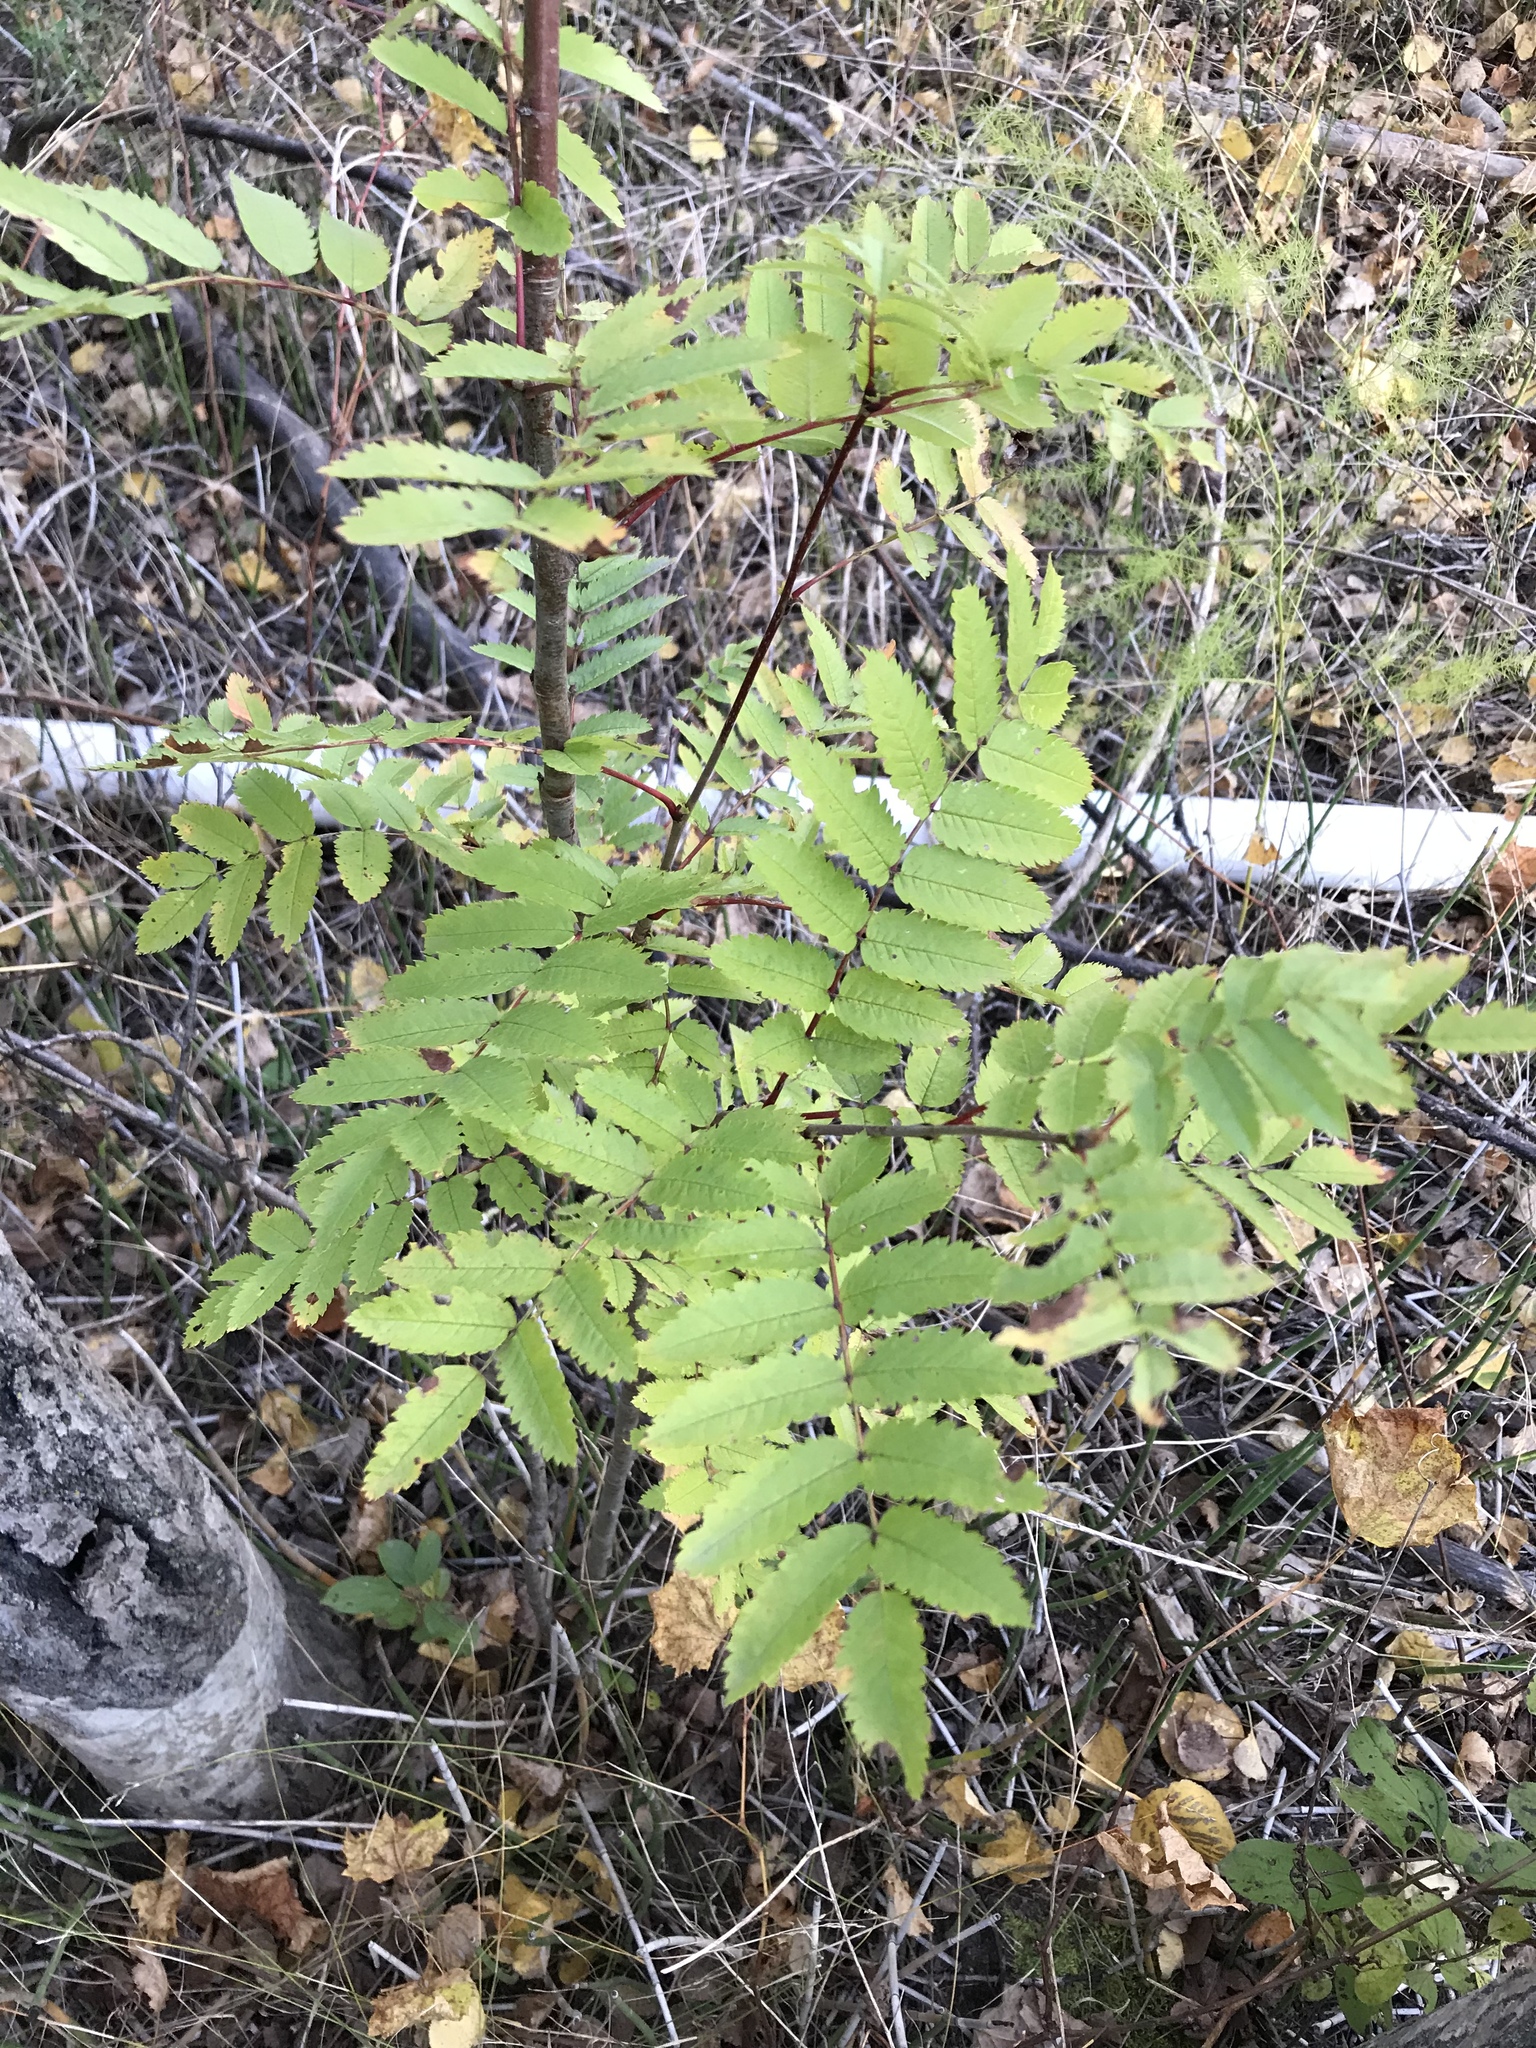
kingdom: Plantae
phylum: Tracheophyta
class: Magnoliopsida
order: Rosales
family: Rosaceae
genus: Sorbus
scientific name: Sorbus aucuparia
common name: Rowan
